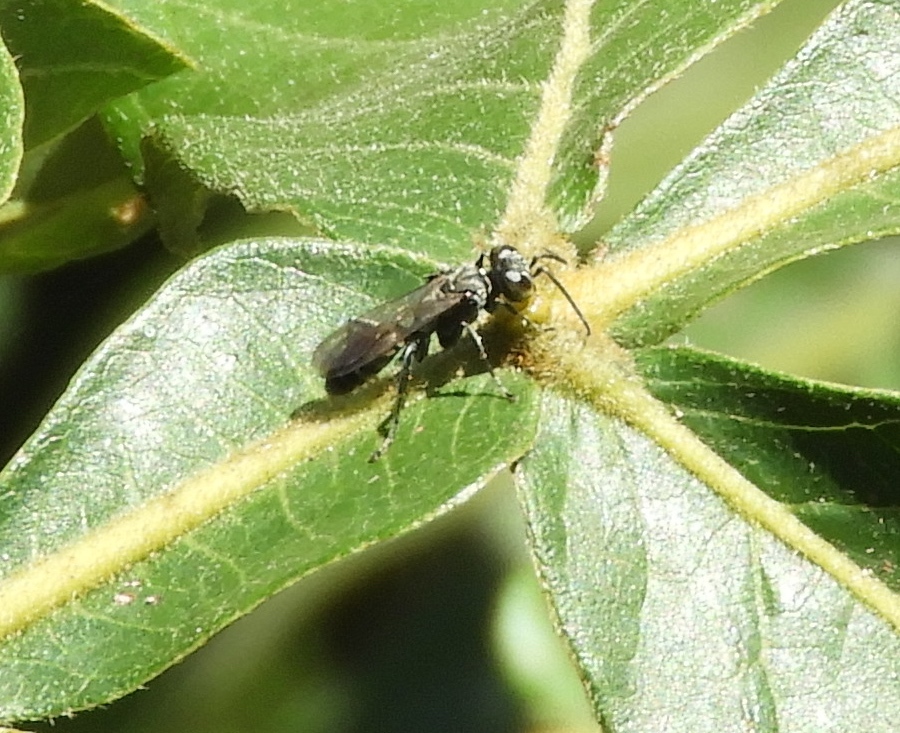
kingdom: Animalia
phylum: Arthropoda
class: Insecta
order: Hymenoptera
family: Crabronidae
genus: Larra
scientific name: Larra
